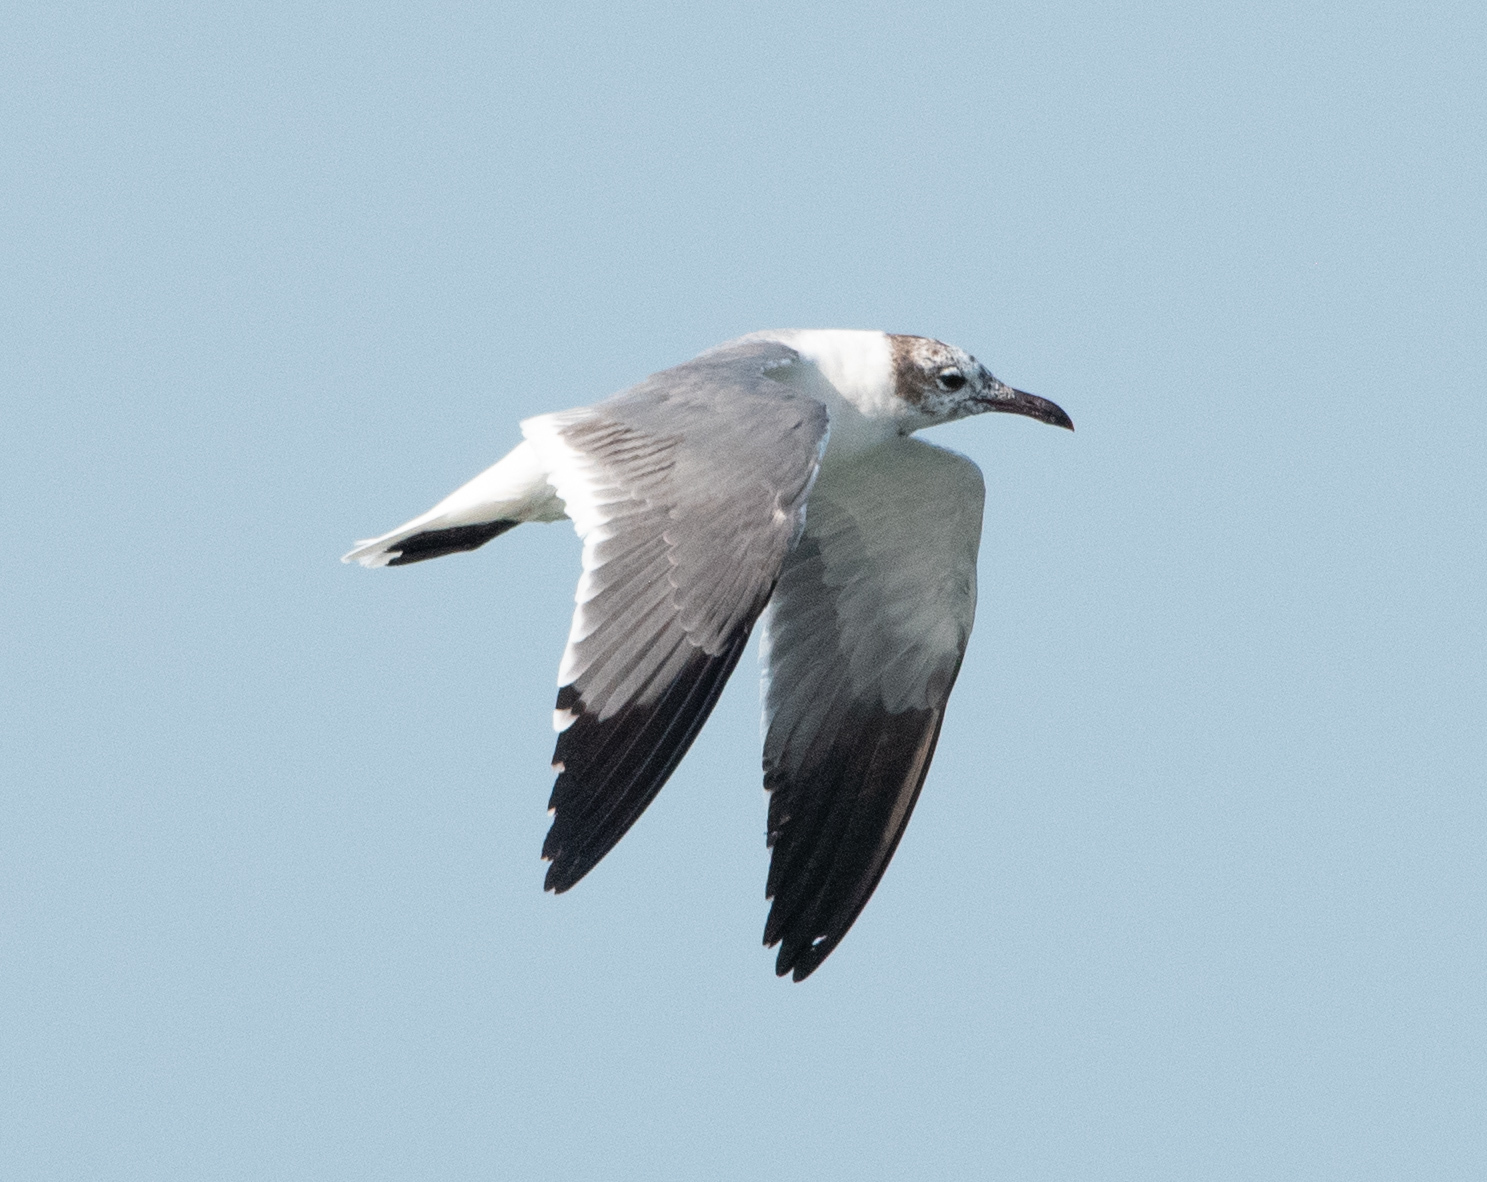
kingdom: Animalia
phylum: Chordata
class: Aves
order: Charadriiformes
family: Laridae
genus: Leucophaeus
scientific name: Leucophaeus atricilla
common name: Laughing gull
